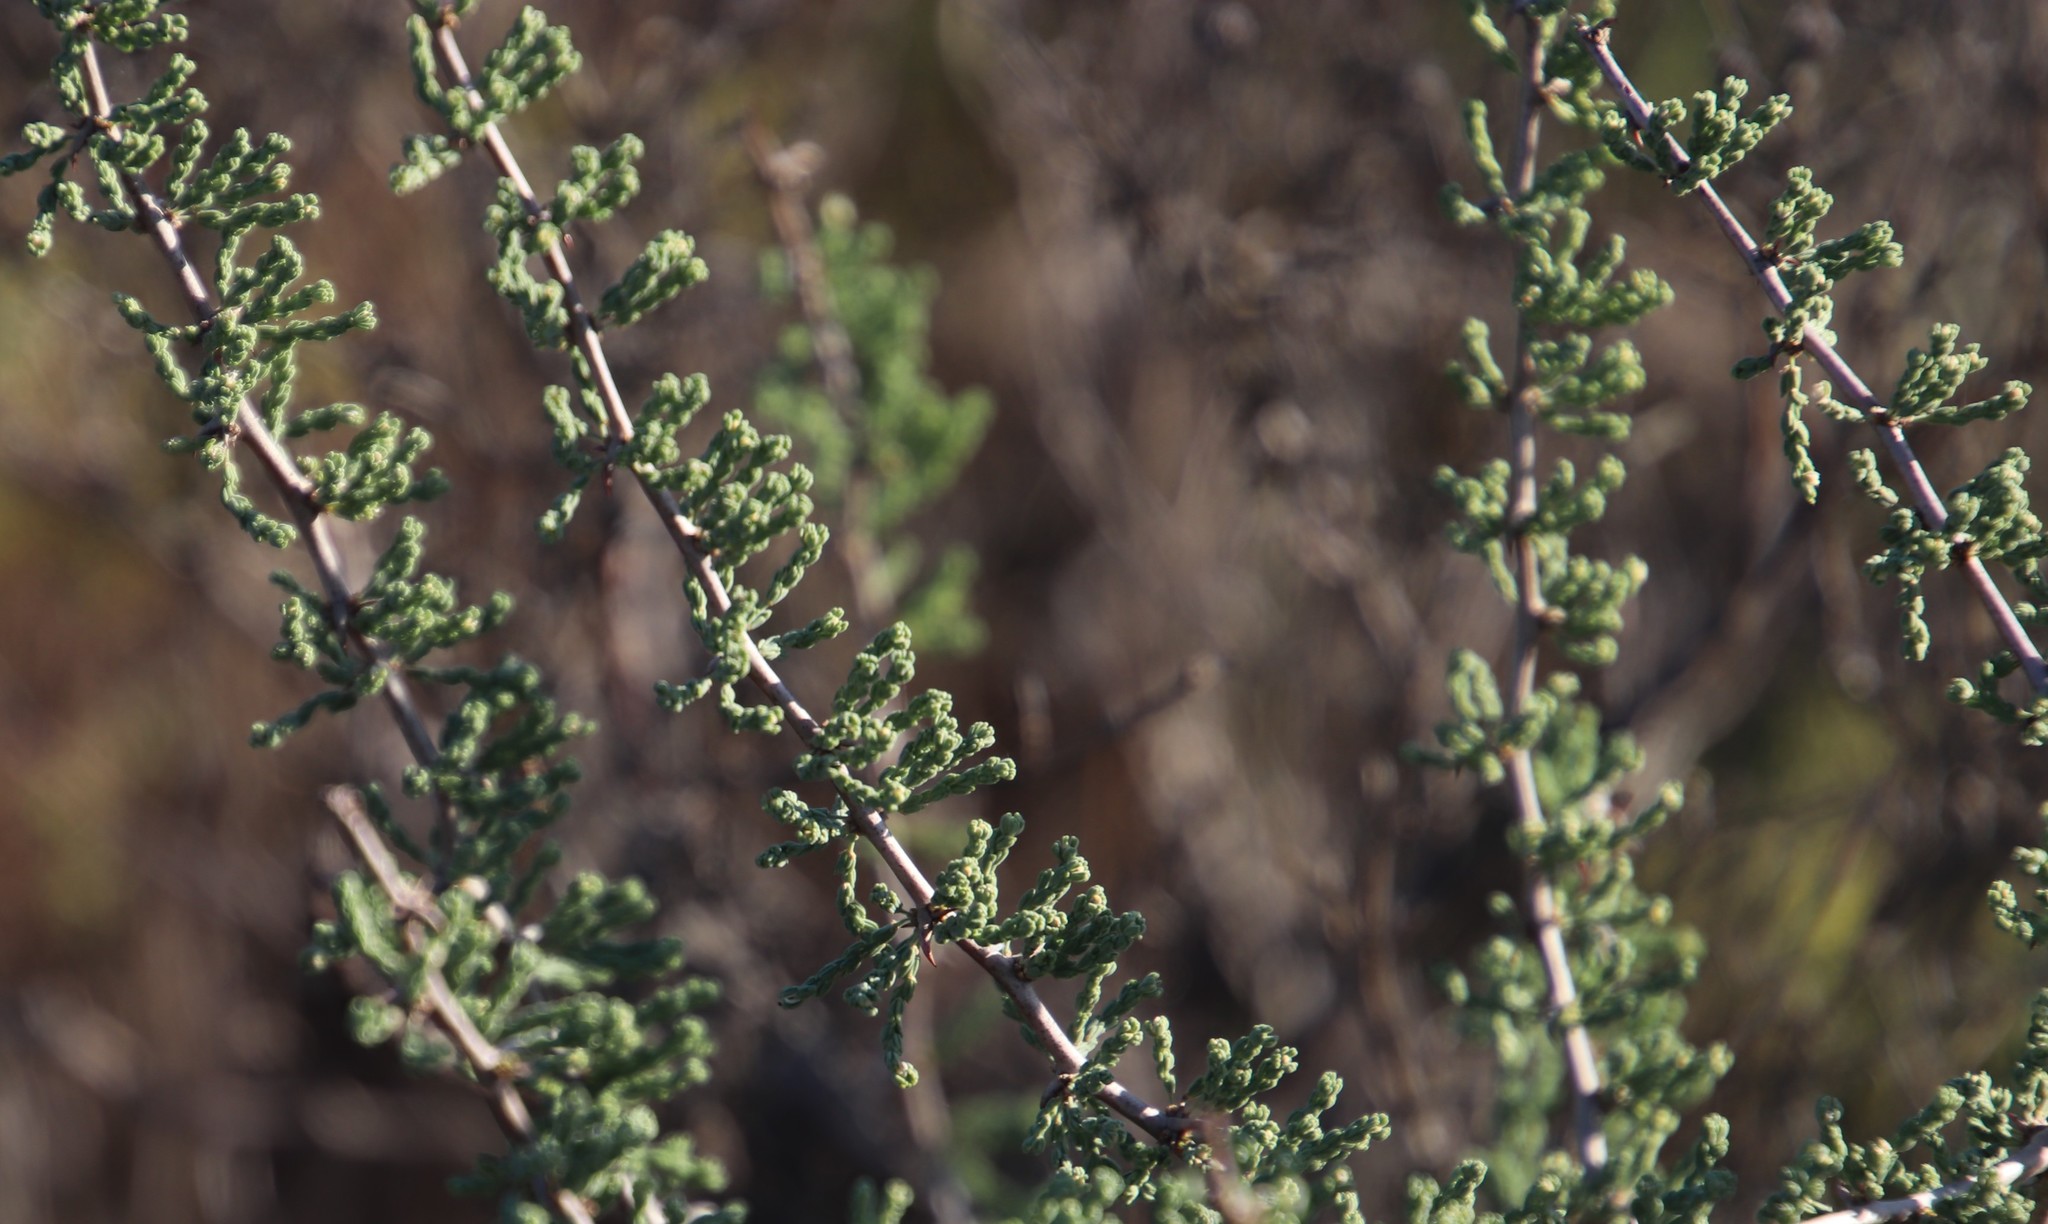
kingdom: Plantae
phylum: Tracheophyta
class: Liliopsida
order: Asparagales
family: Asparagaceae
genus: Asparagus
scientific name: Asparagus capensis
